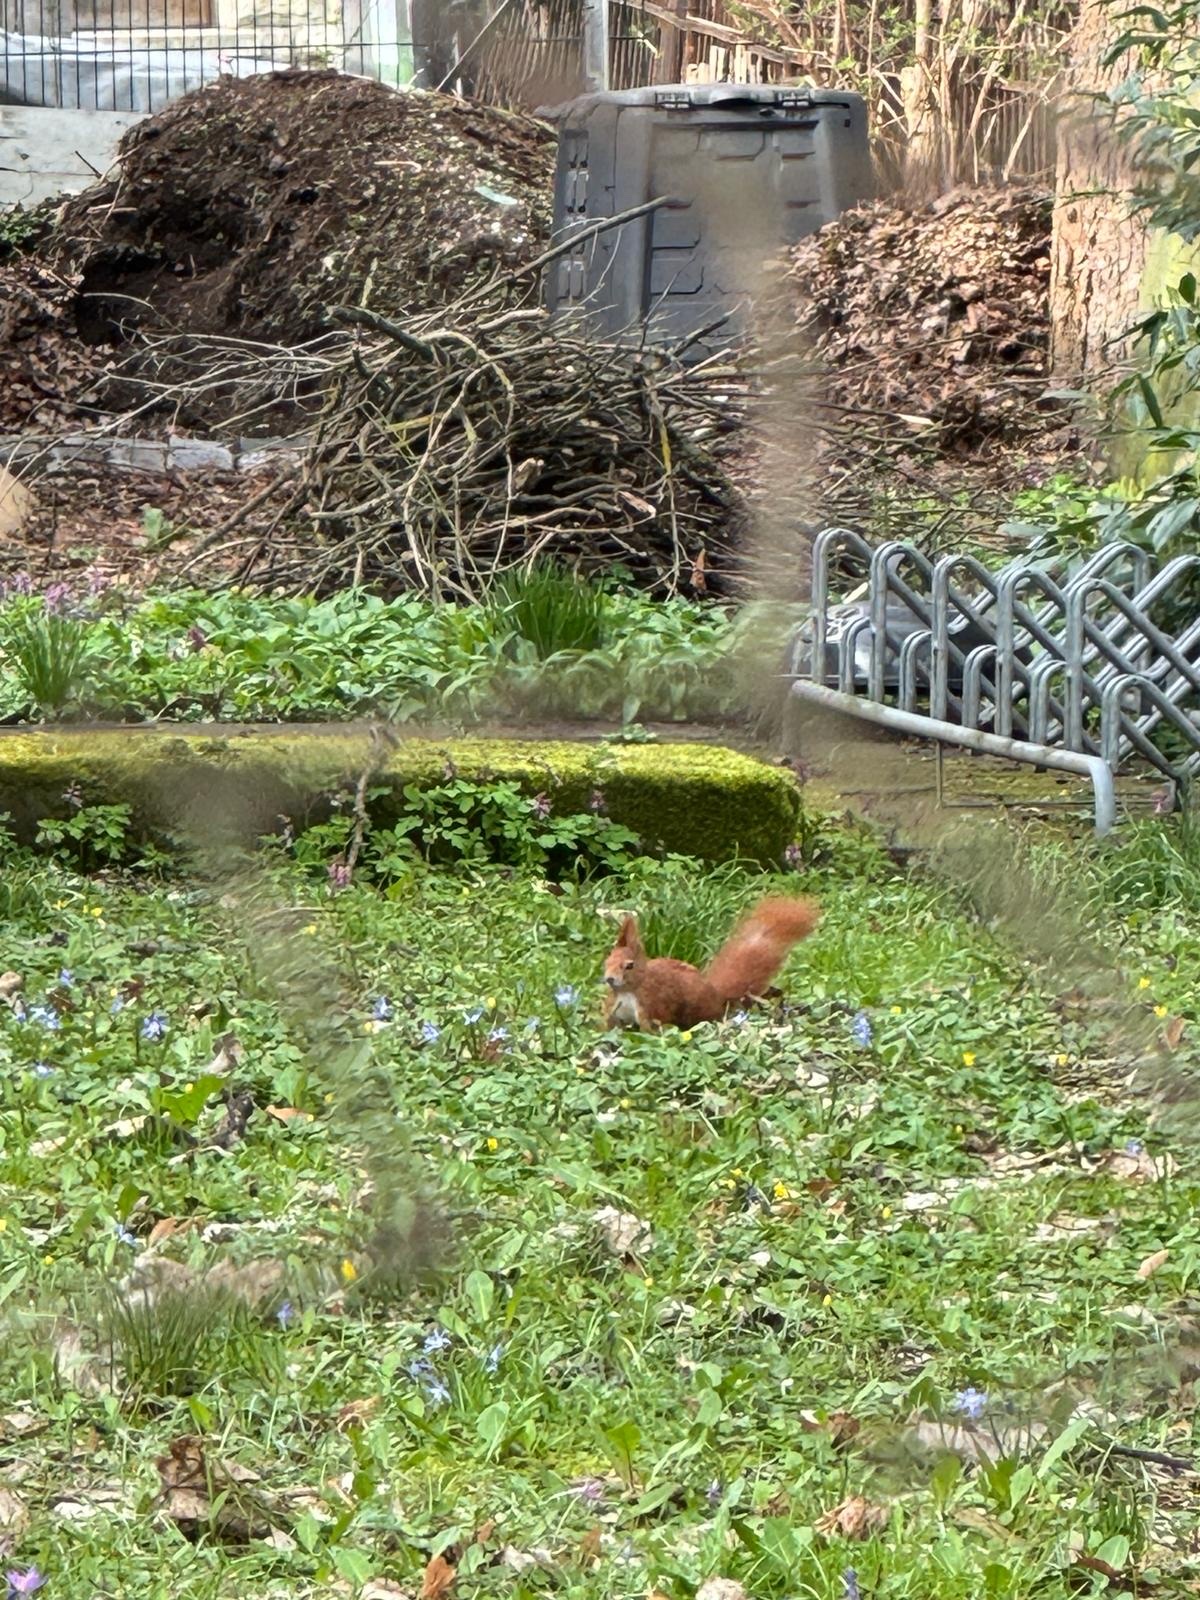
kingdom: Animalia
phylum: Chordata
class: Mammalia
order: Rodentia
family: Sciuridae
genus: Sciurus
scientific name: Sciurus vulgaris
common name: Eurasian red squirrel
